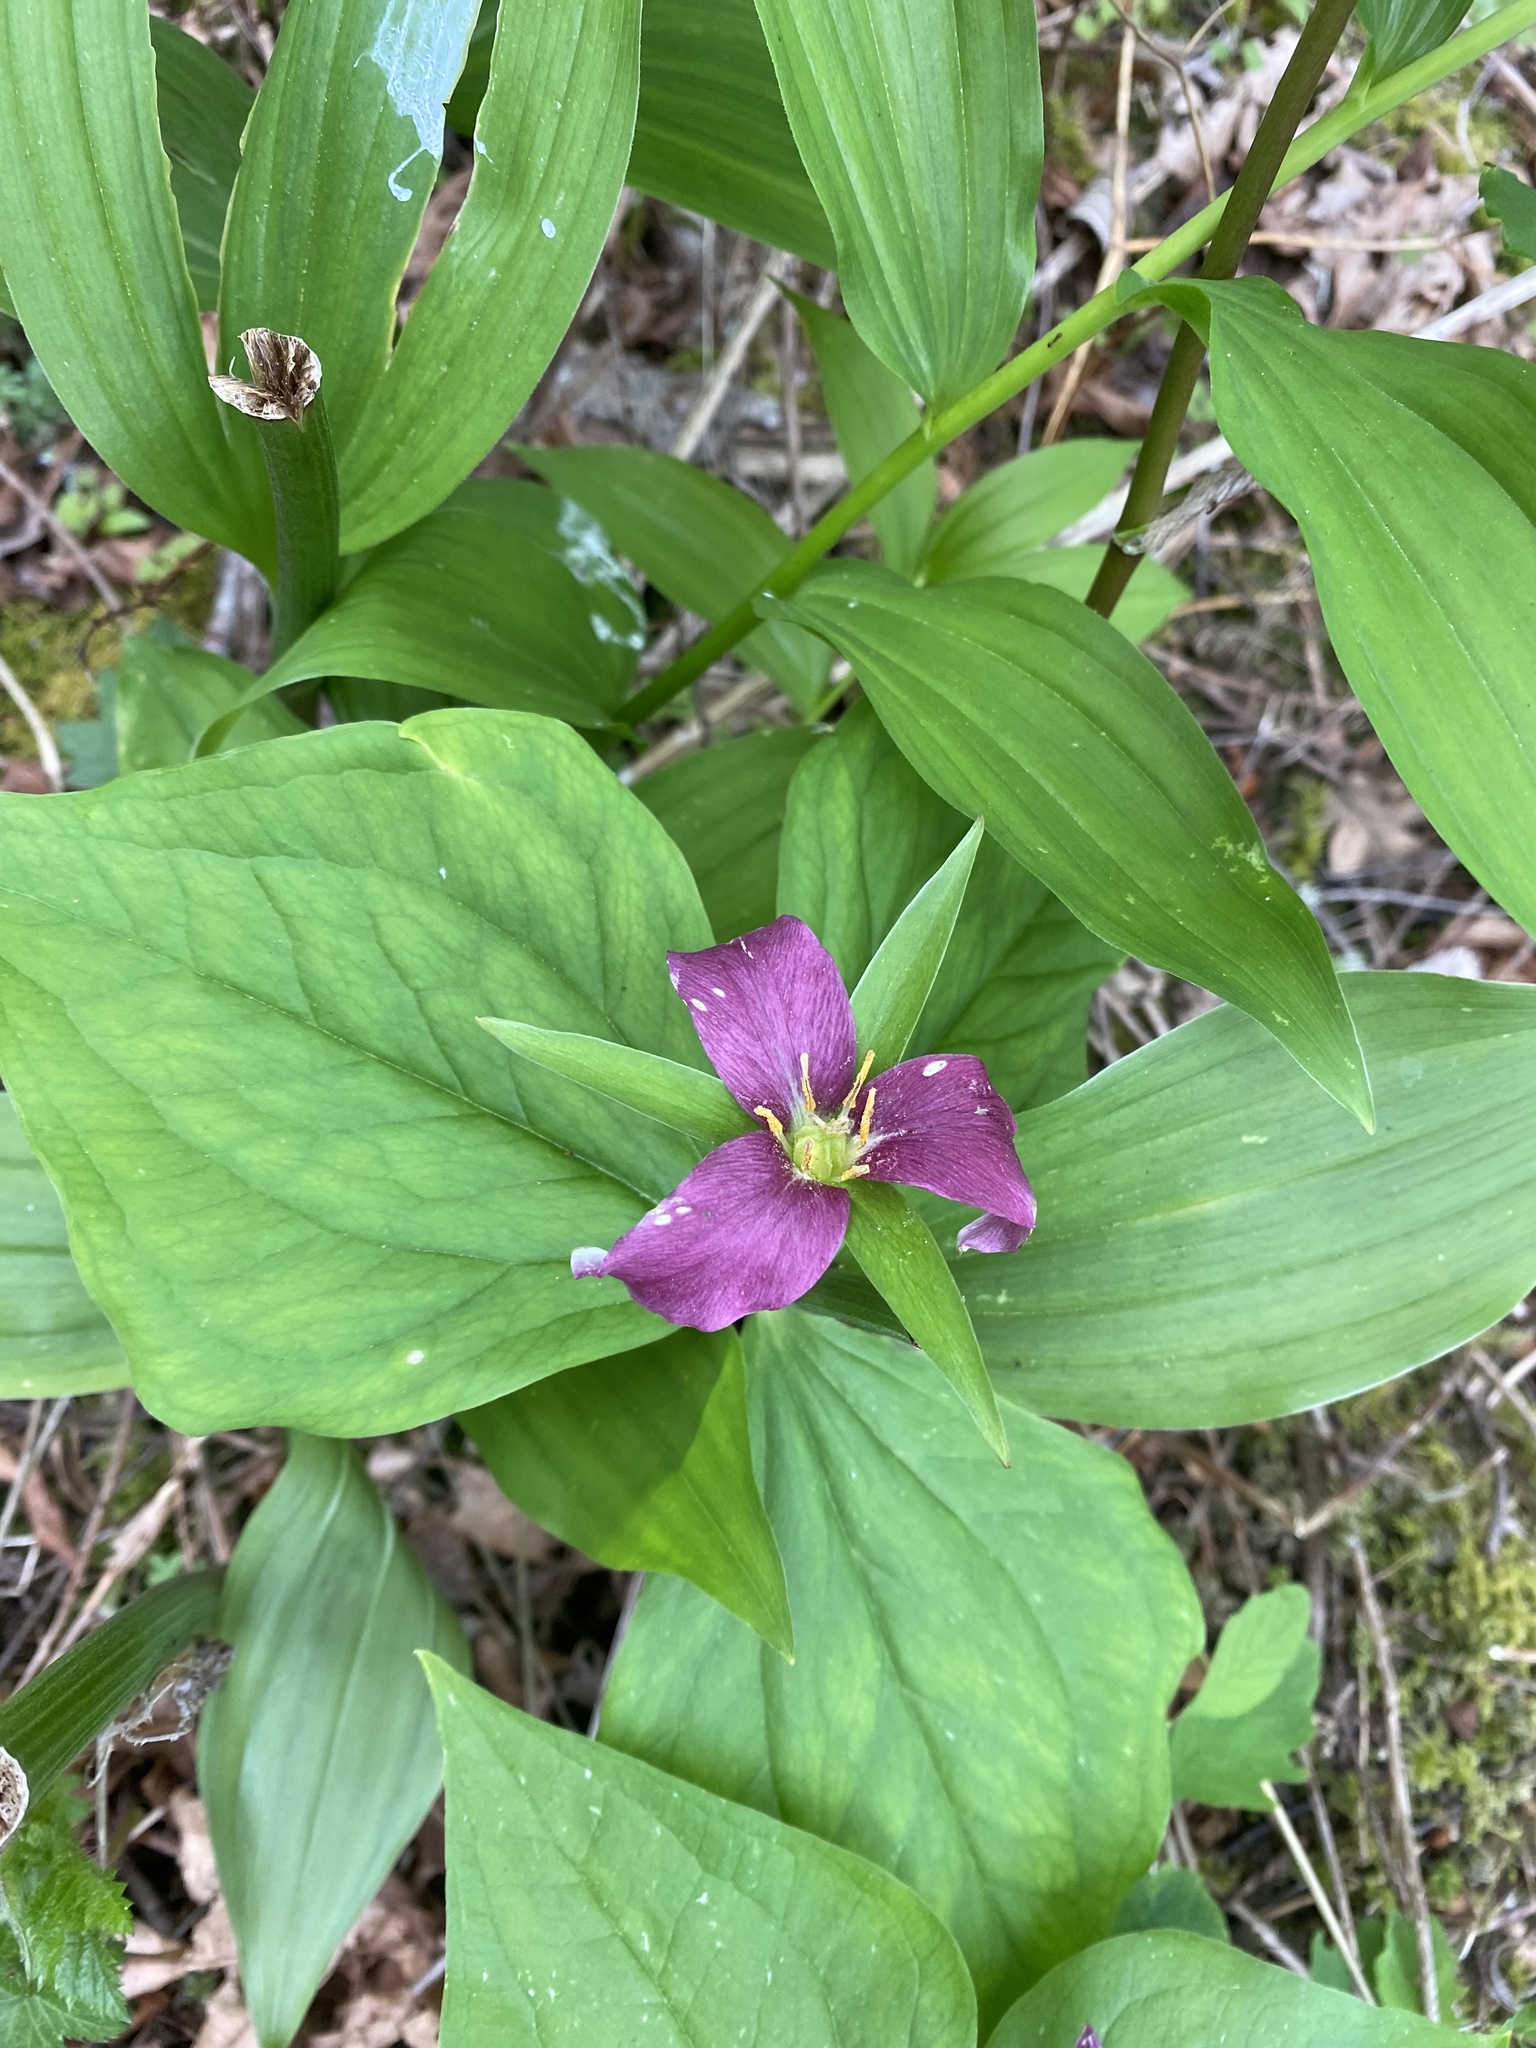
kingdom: Plantae
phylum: Tracheophyta
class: Liliopsida
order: Liliales
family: Melanthiaceae
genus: Trillium
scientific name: Trillium ovatum
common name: Pacific trillium
